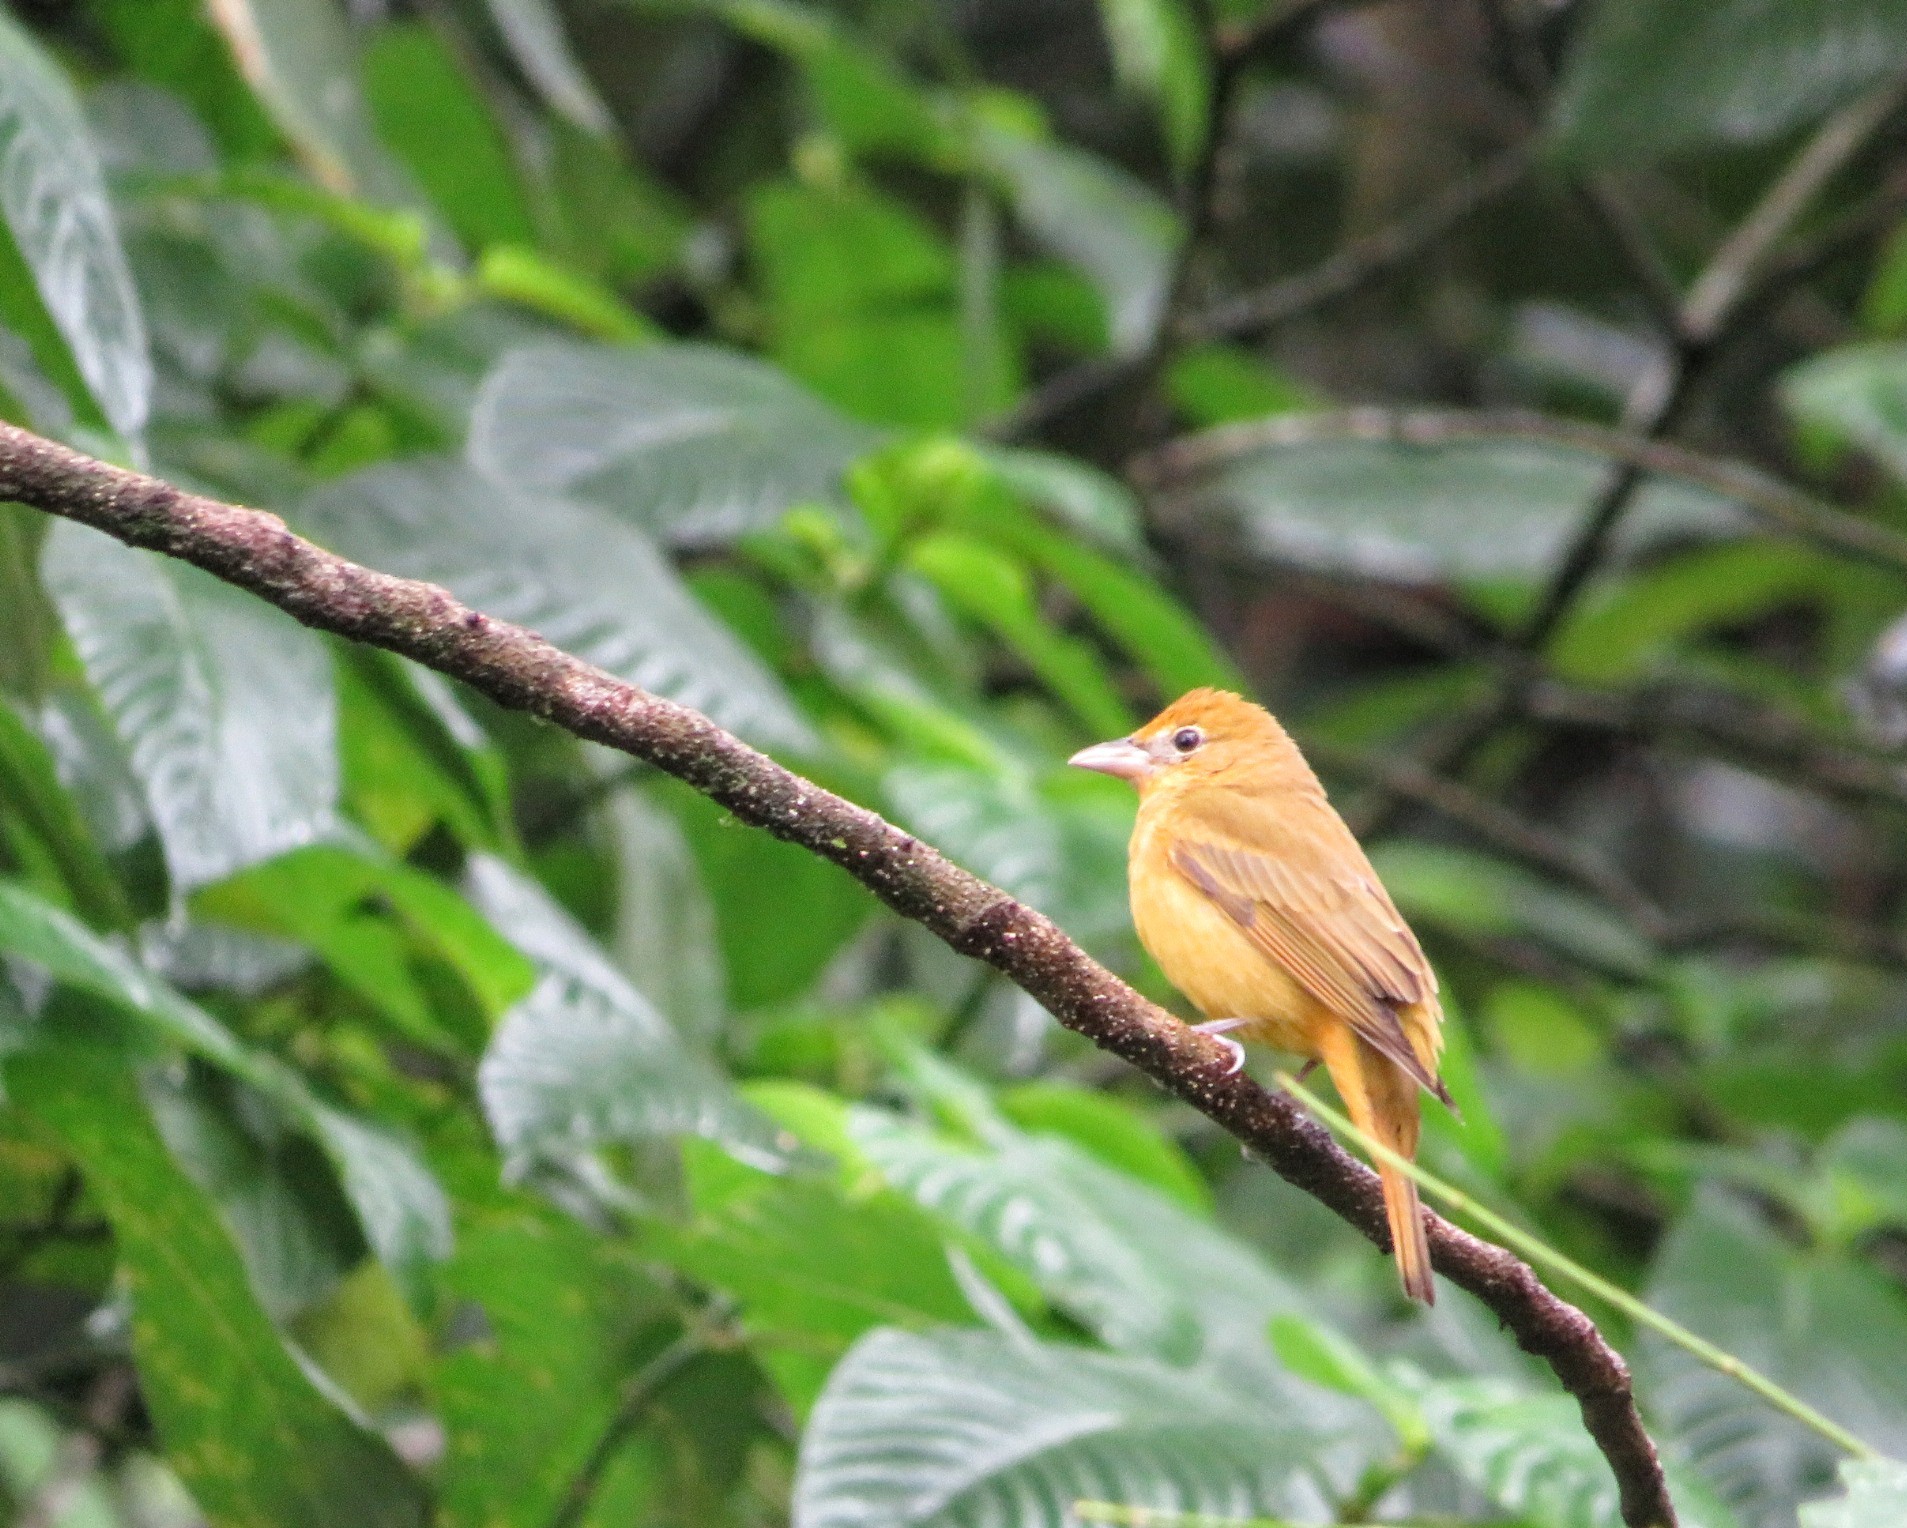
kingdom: Animalia
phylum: Chordata
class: Aves
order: Passeriformes
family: Cardinalidae
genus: Piranga
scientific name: Piranga rubra
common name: Summer tanager
